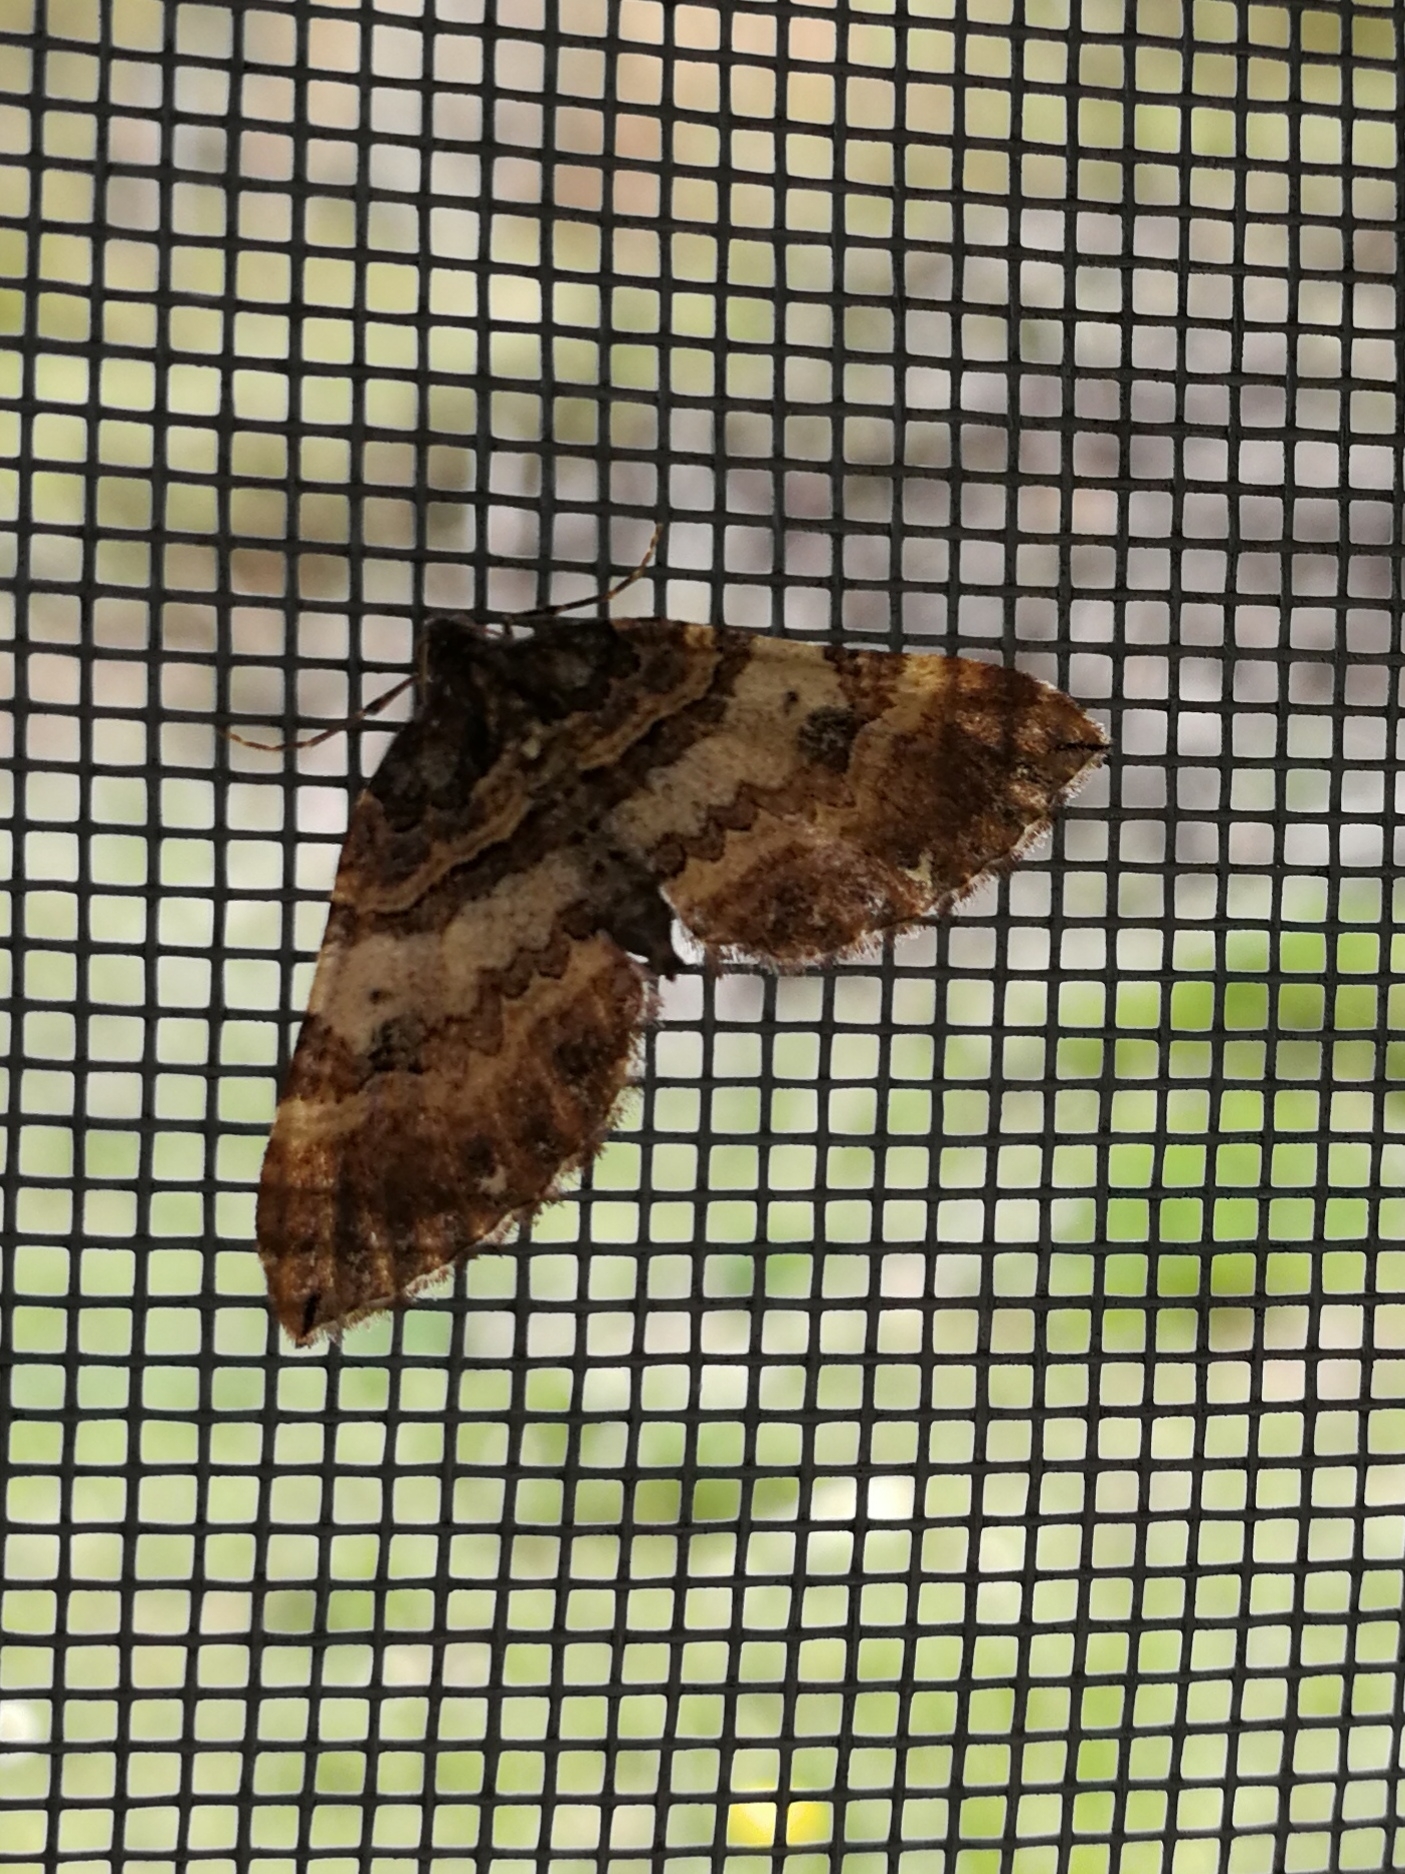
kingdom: Animalia
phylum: Arthropoda
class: Insecta
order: Lepidoptera
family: Geometridae
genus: Anticlea
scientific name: Anticlea badiata
